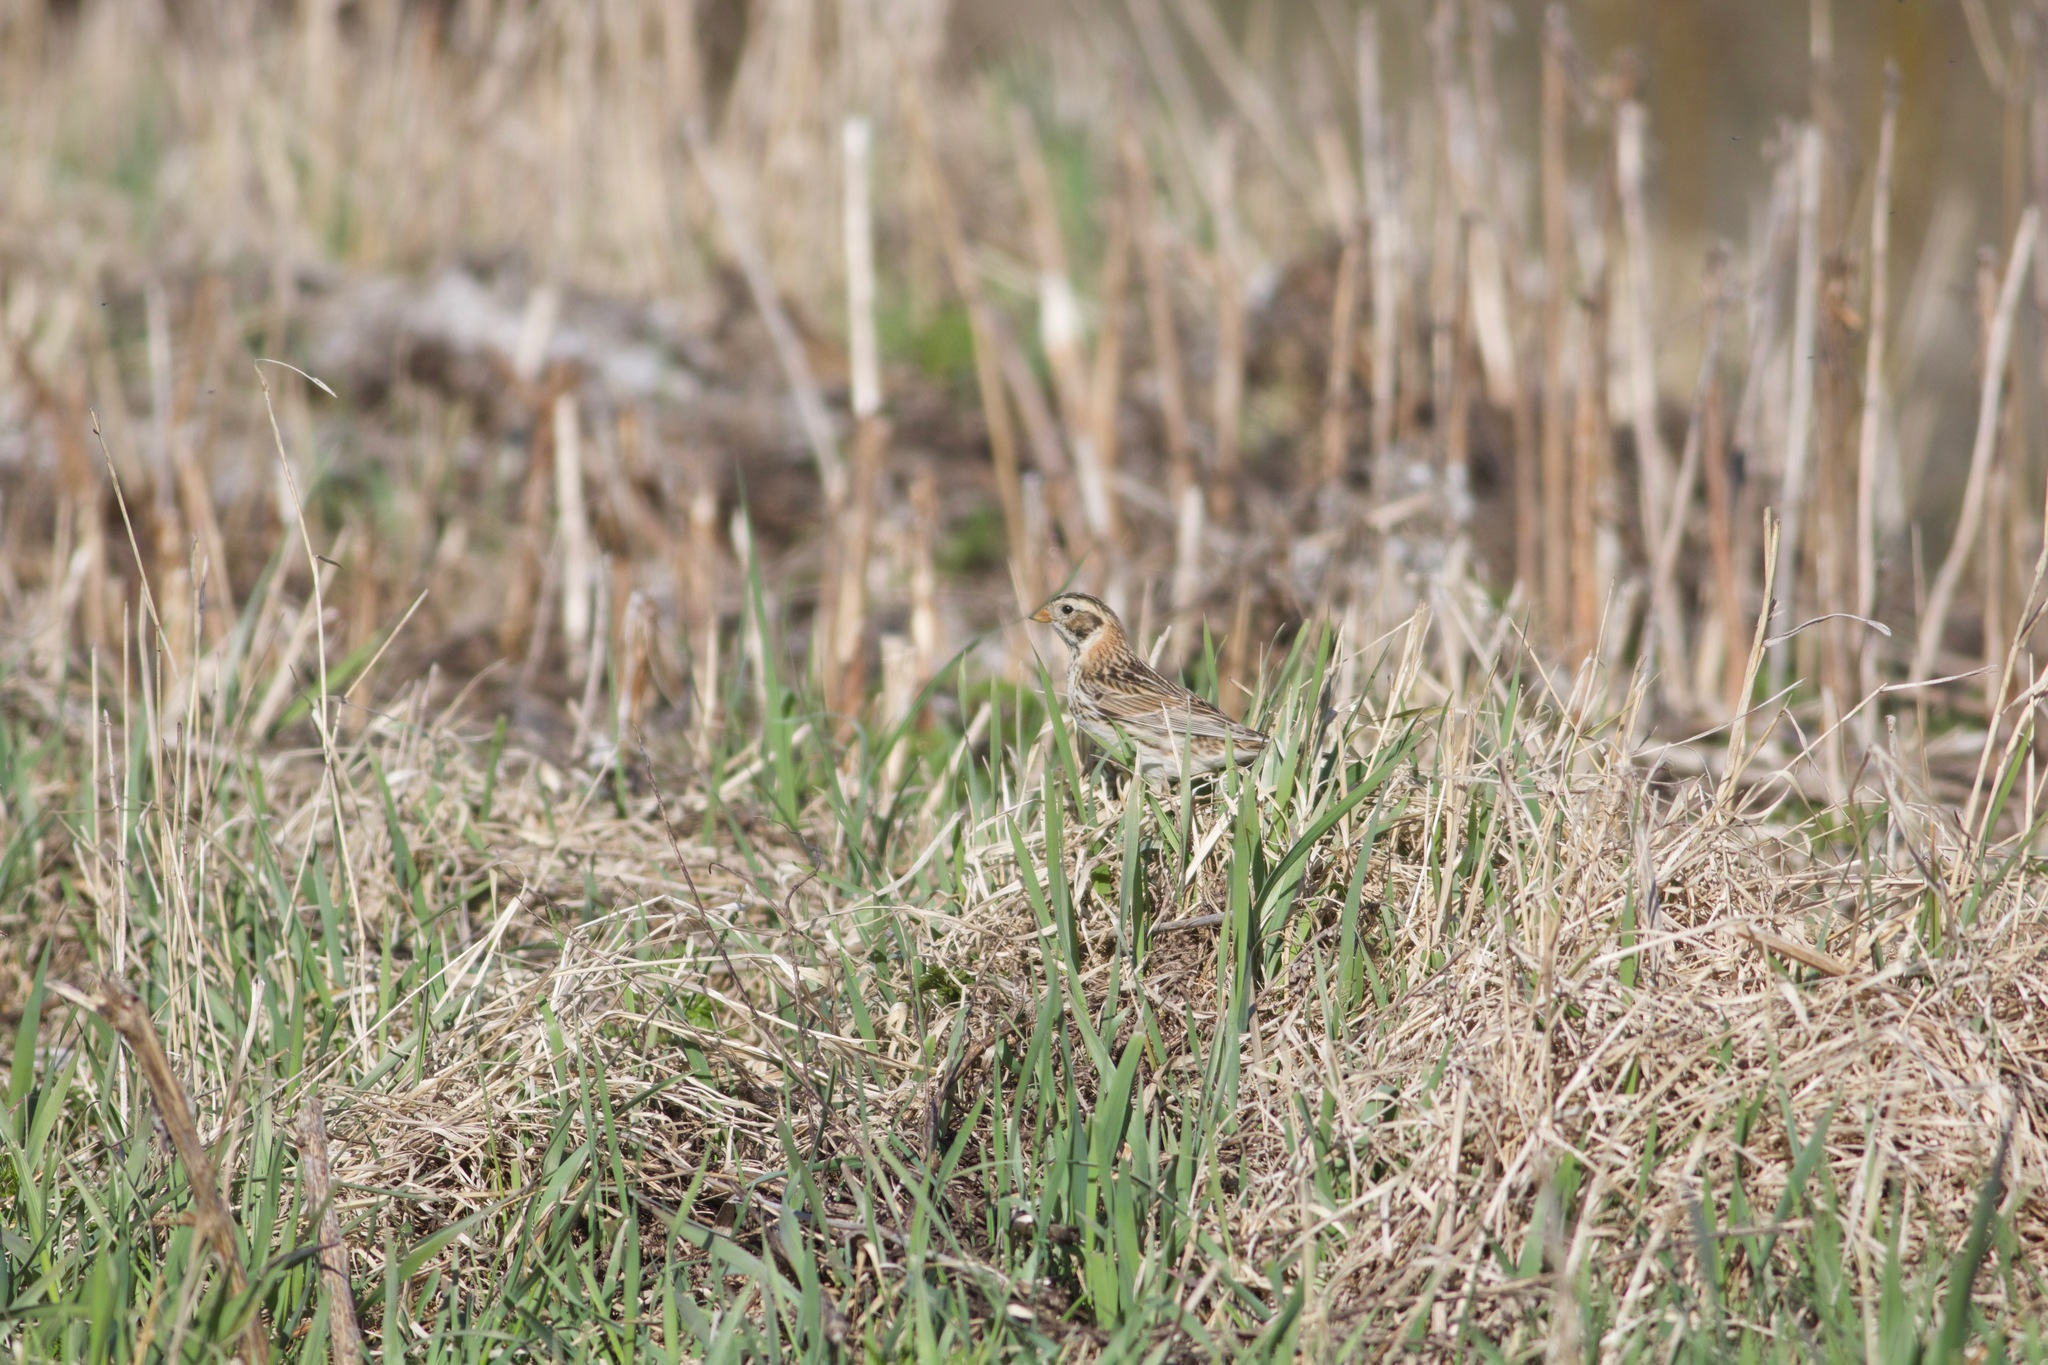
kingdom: Animalia
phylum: Chordata
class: Aves
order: Passeriformes
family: Calcariidae
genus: Calcarius
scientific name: Calcarius lapponicus
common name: Lapland longspur
